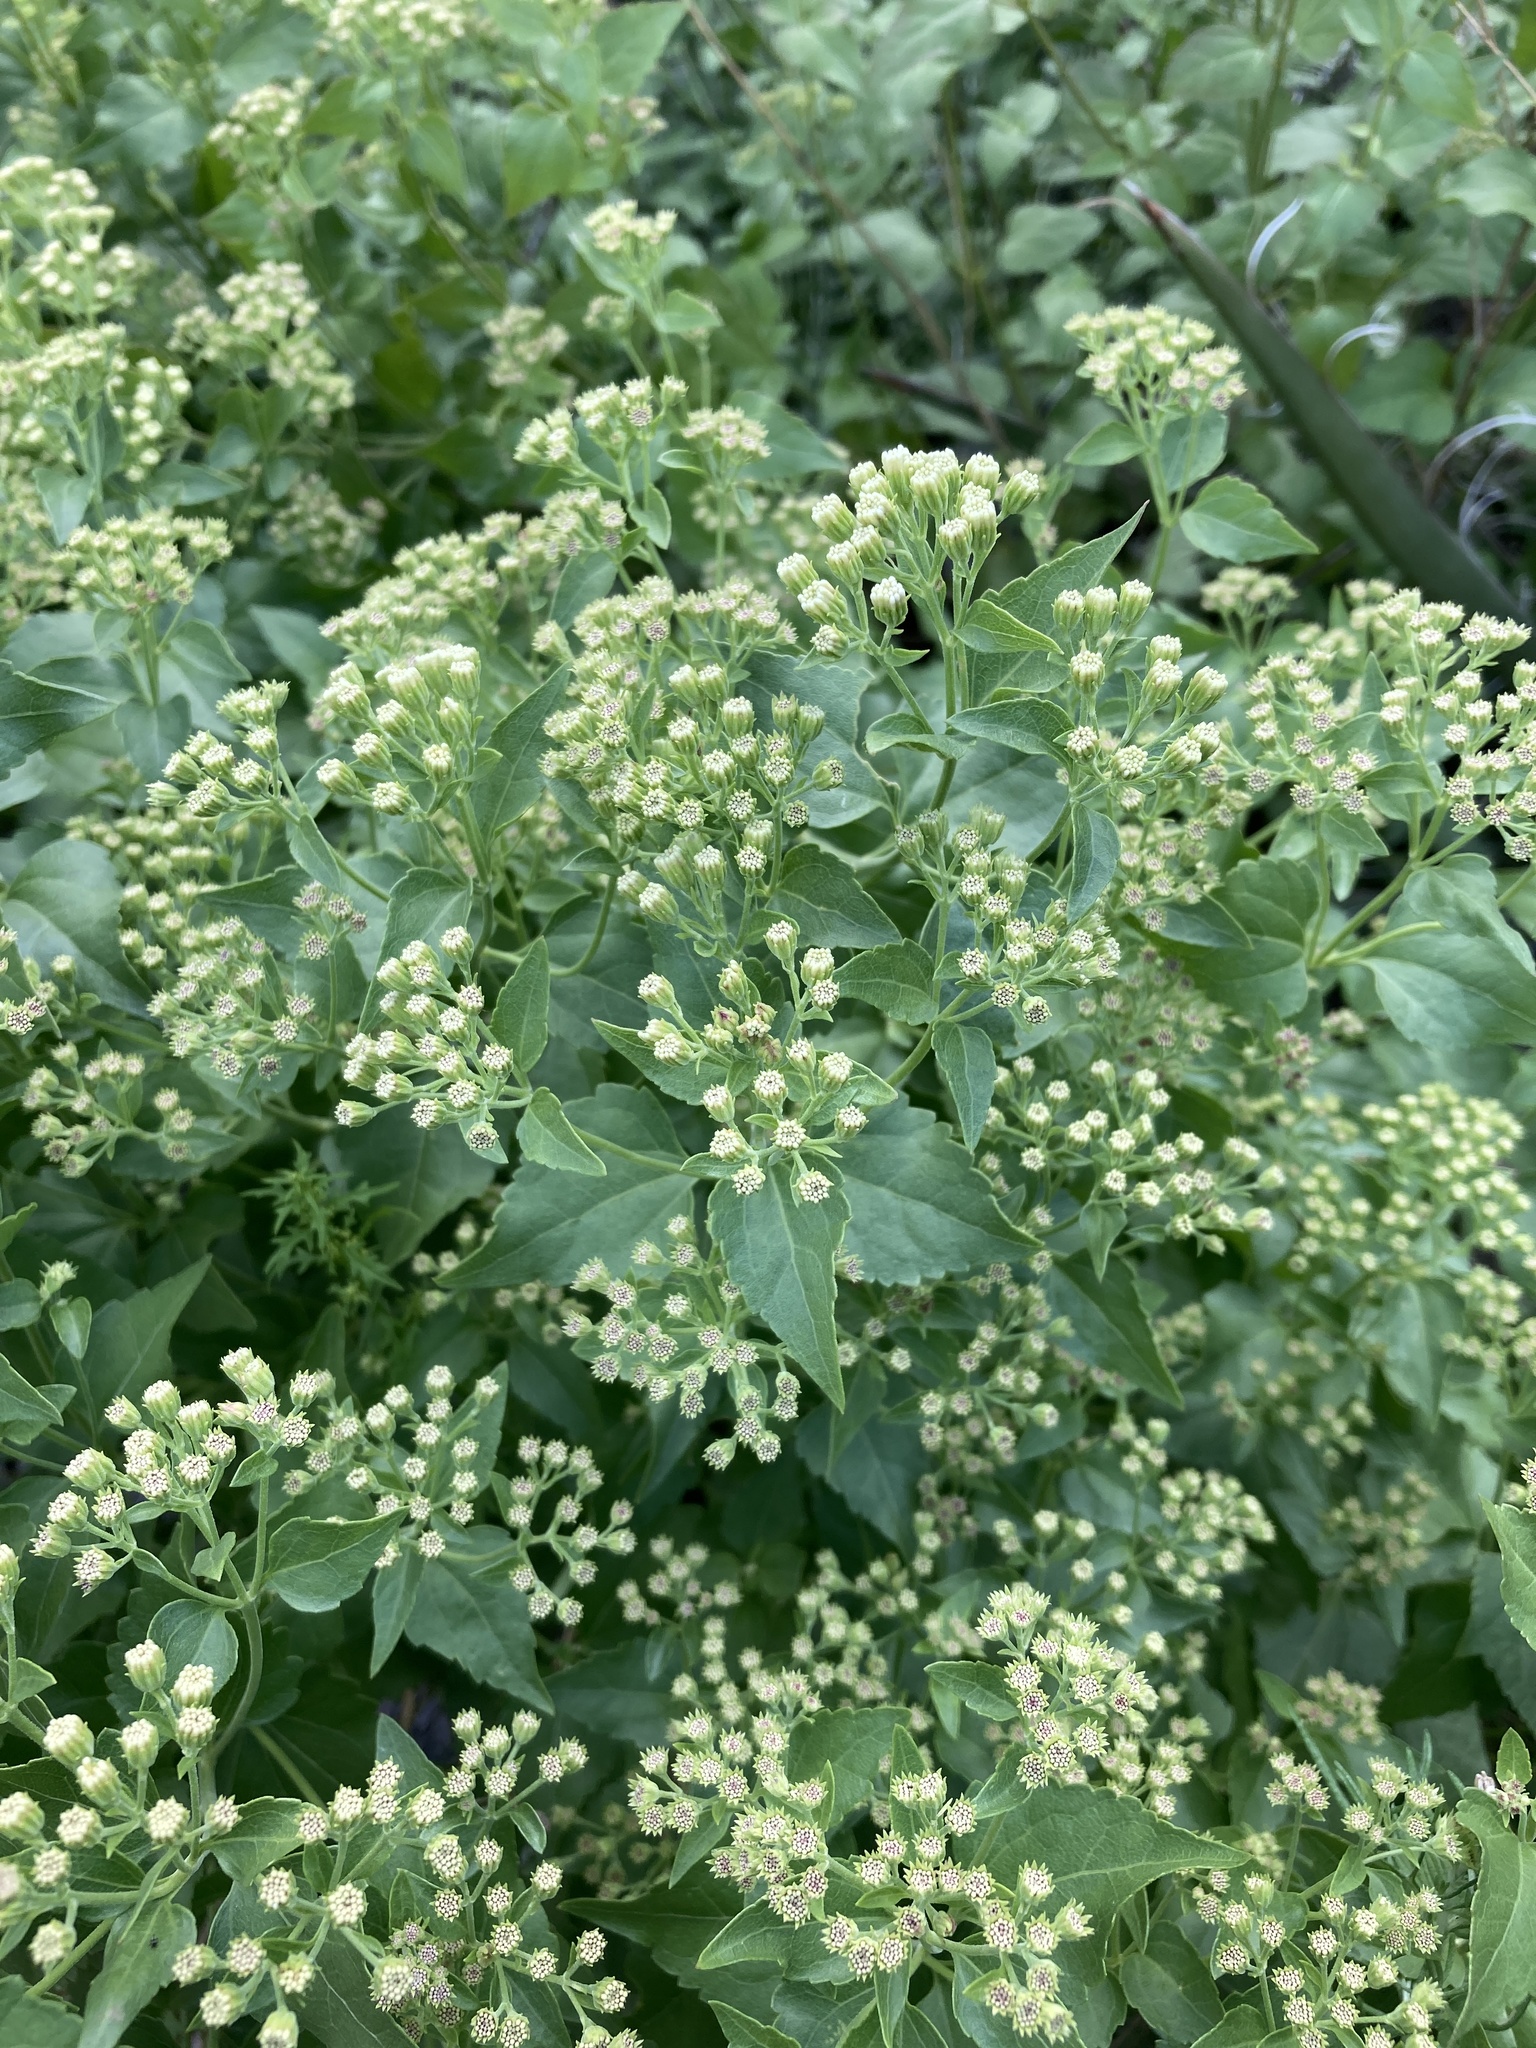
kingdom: Plantae
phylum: Tracheophyta
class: Magnoliopsida
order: Asterales
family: Asteraceae
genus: Ageratina
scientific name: Ageratina herbacea
